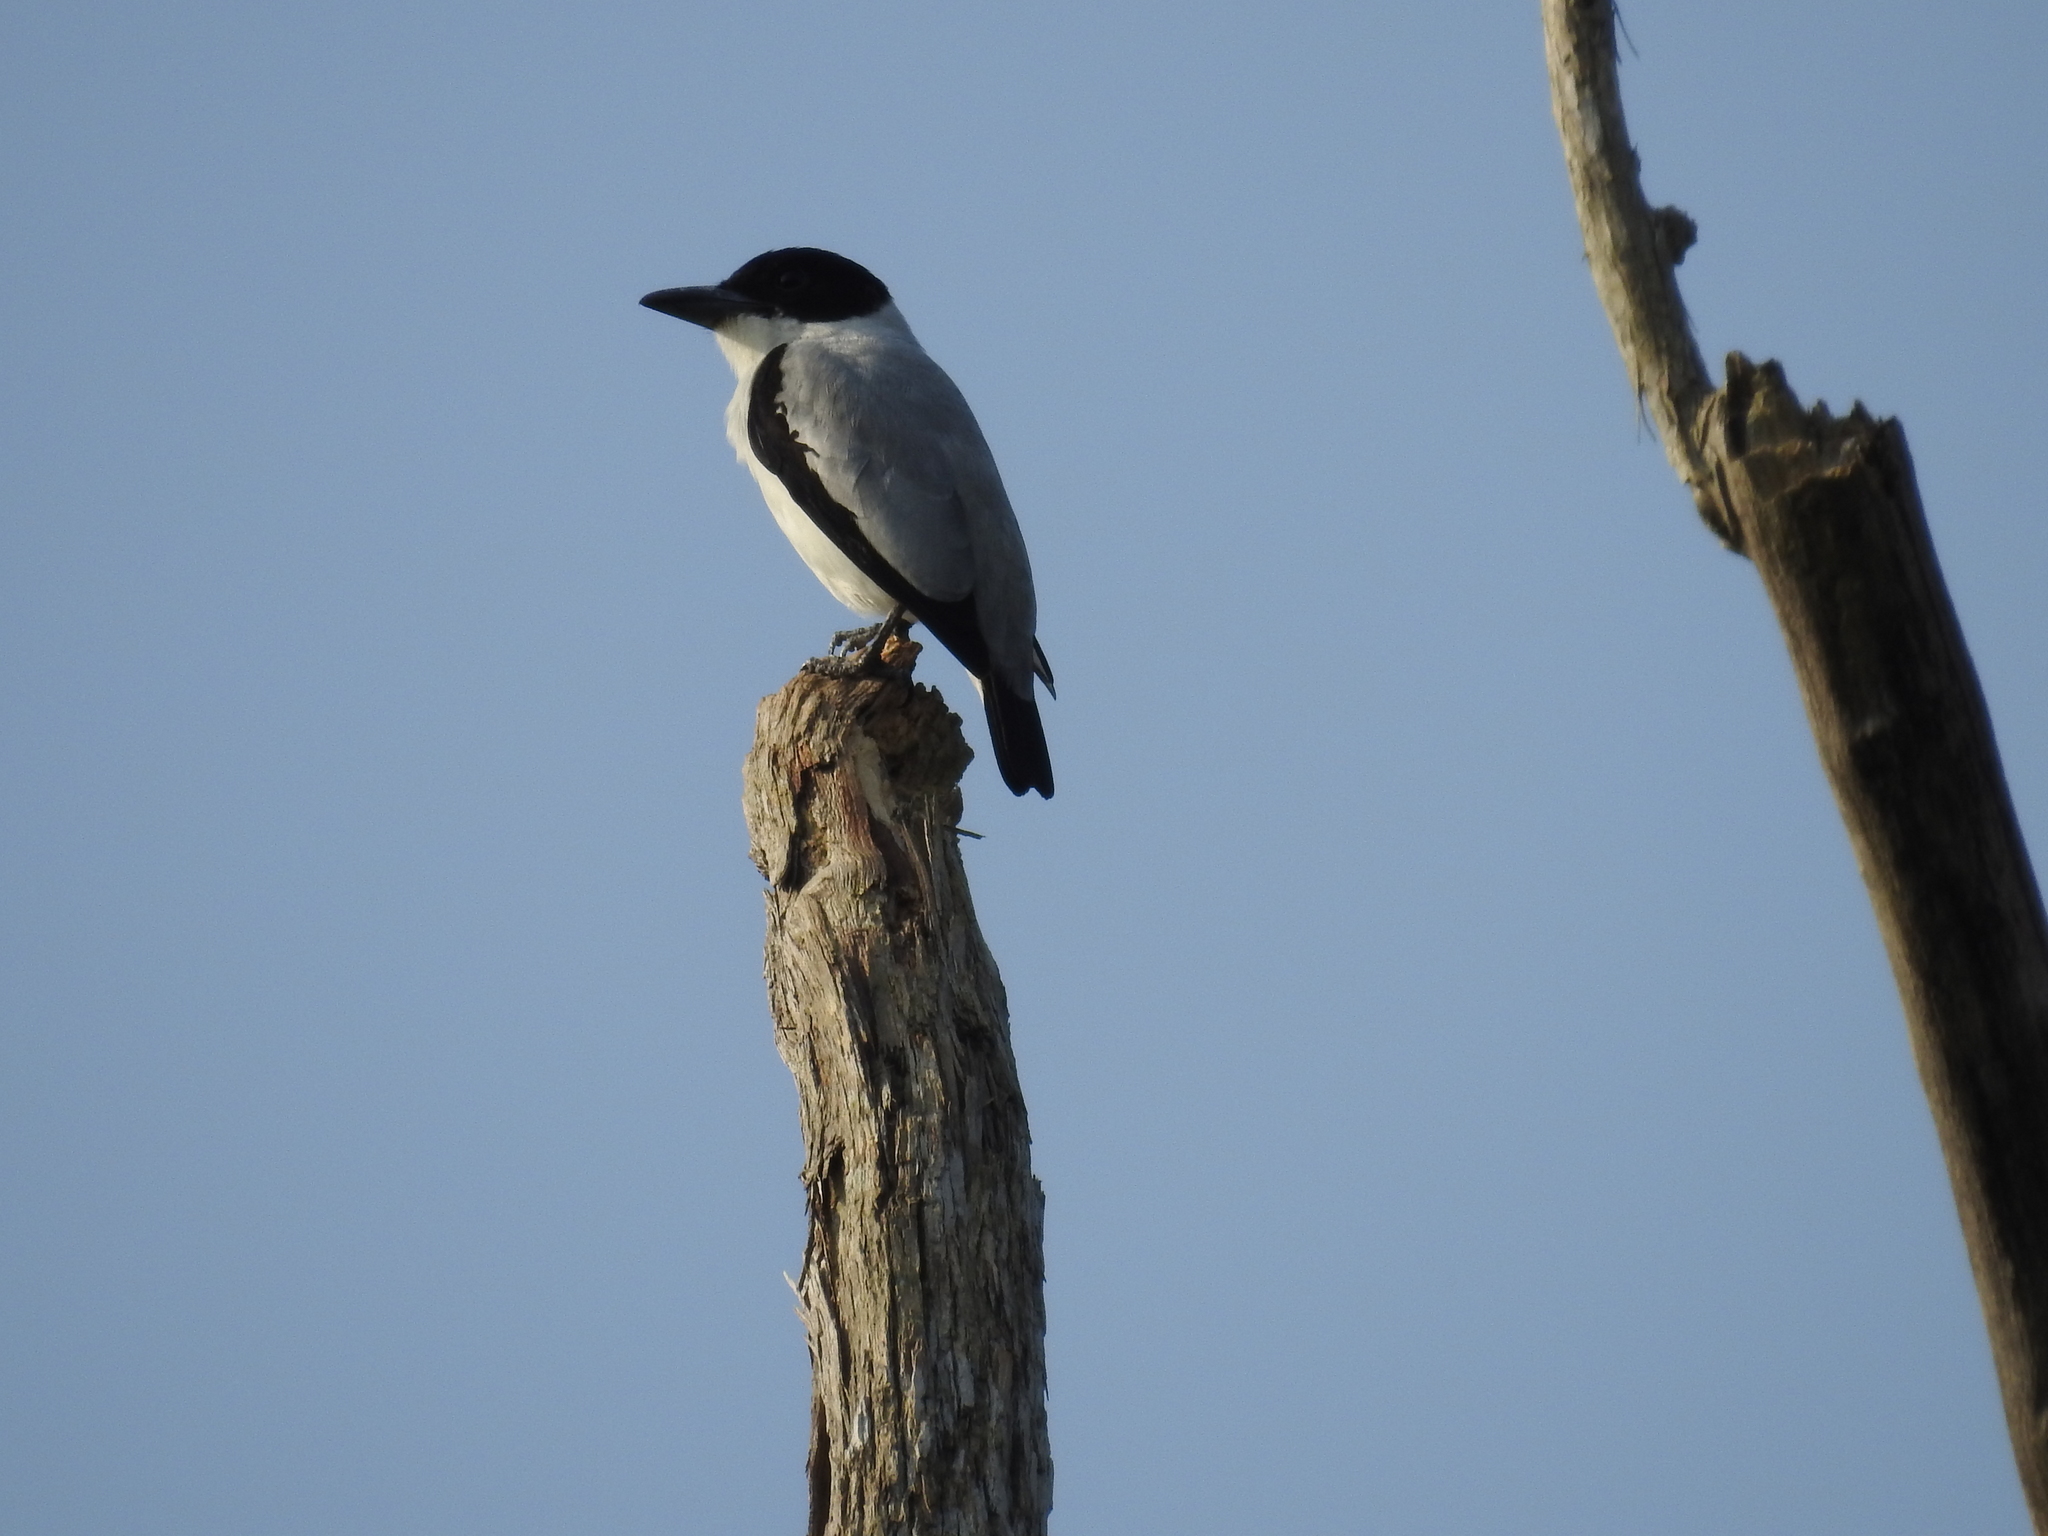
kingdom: Animalia
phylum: Chordata
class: Aves
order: Passeriformes
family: Cotingidae
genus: Tityra
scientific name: Tityra inquisitor
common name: Black-crowned tityra
